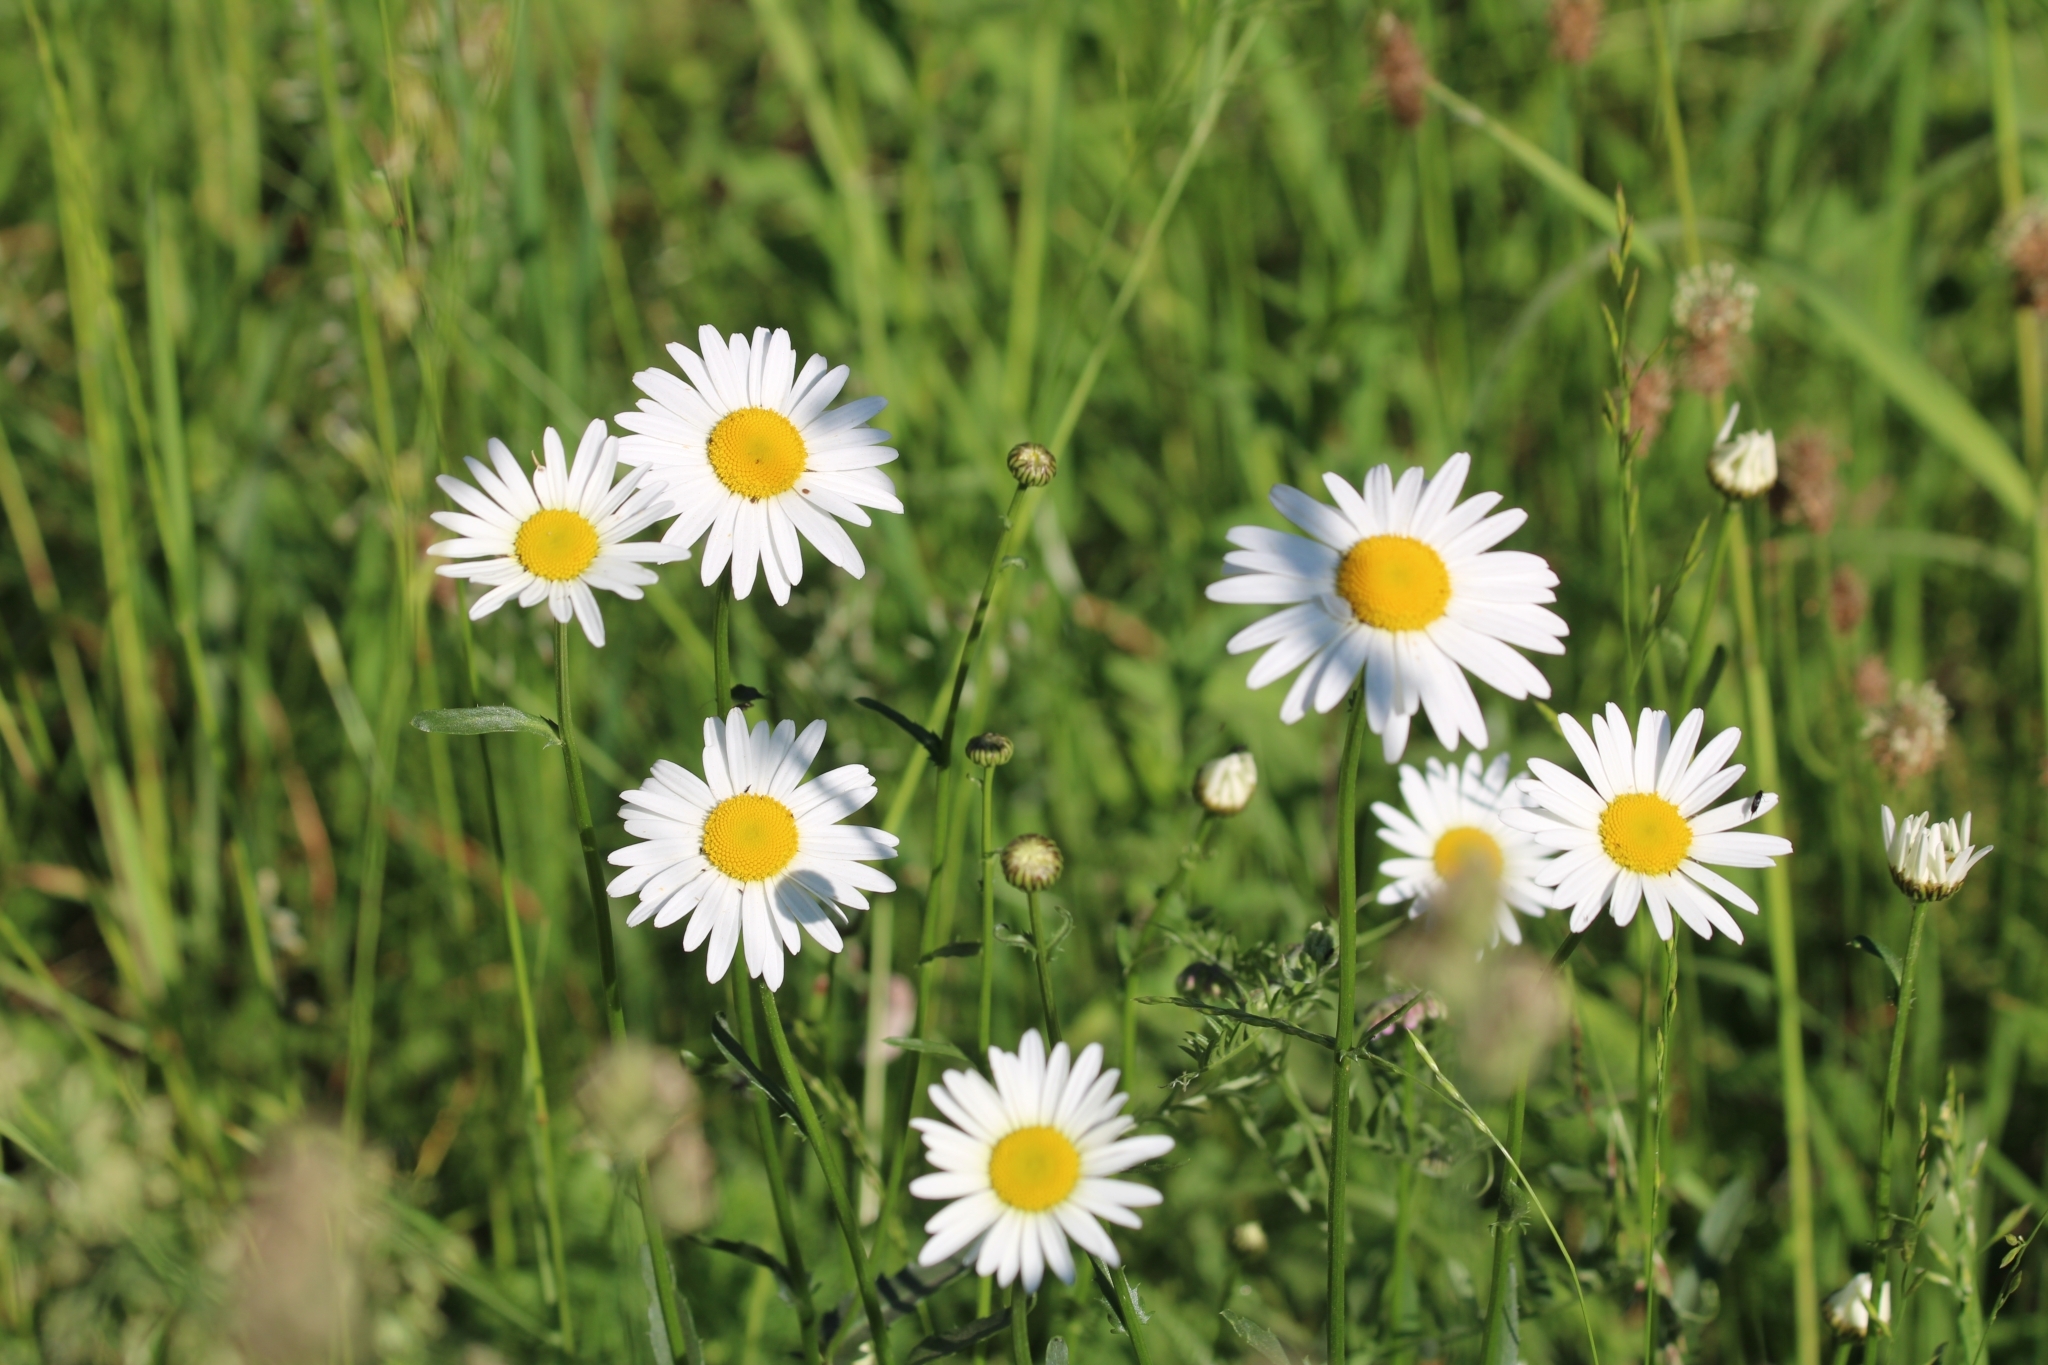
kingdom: Plantae
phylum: Tracheophyta
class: Magnoliopsida
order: Asterales
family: Asteraceae
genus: Leucanthemum
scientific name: Leucanthemum vulgare
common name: Oxeye daisy
